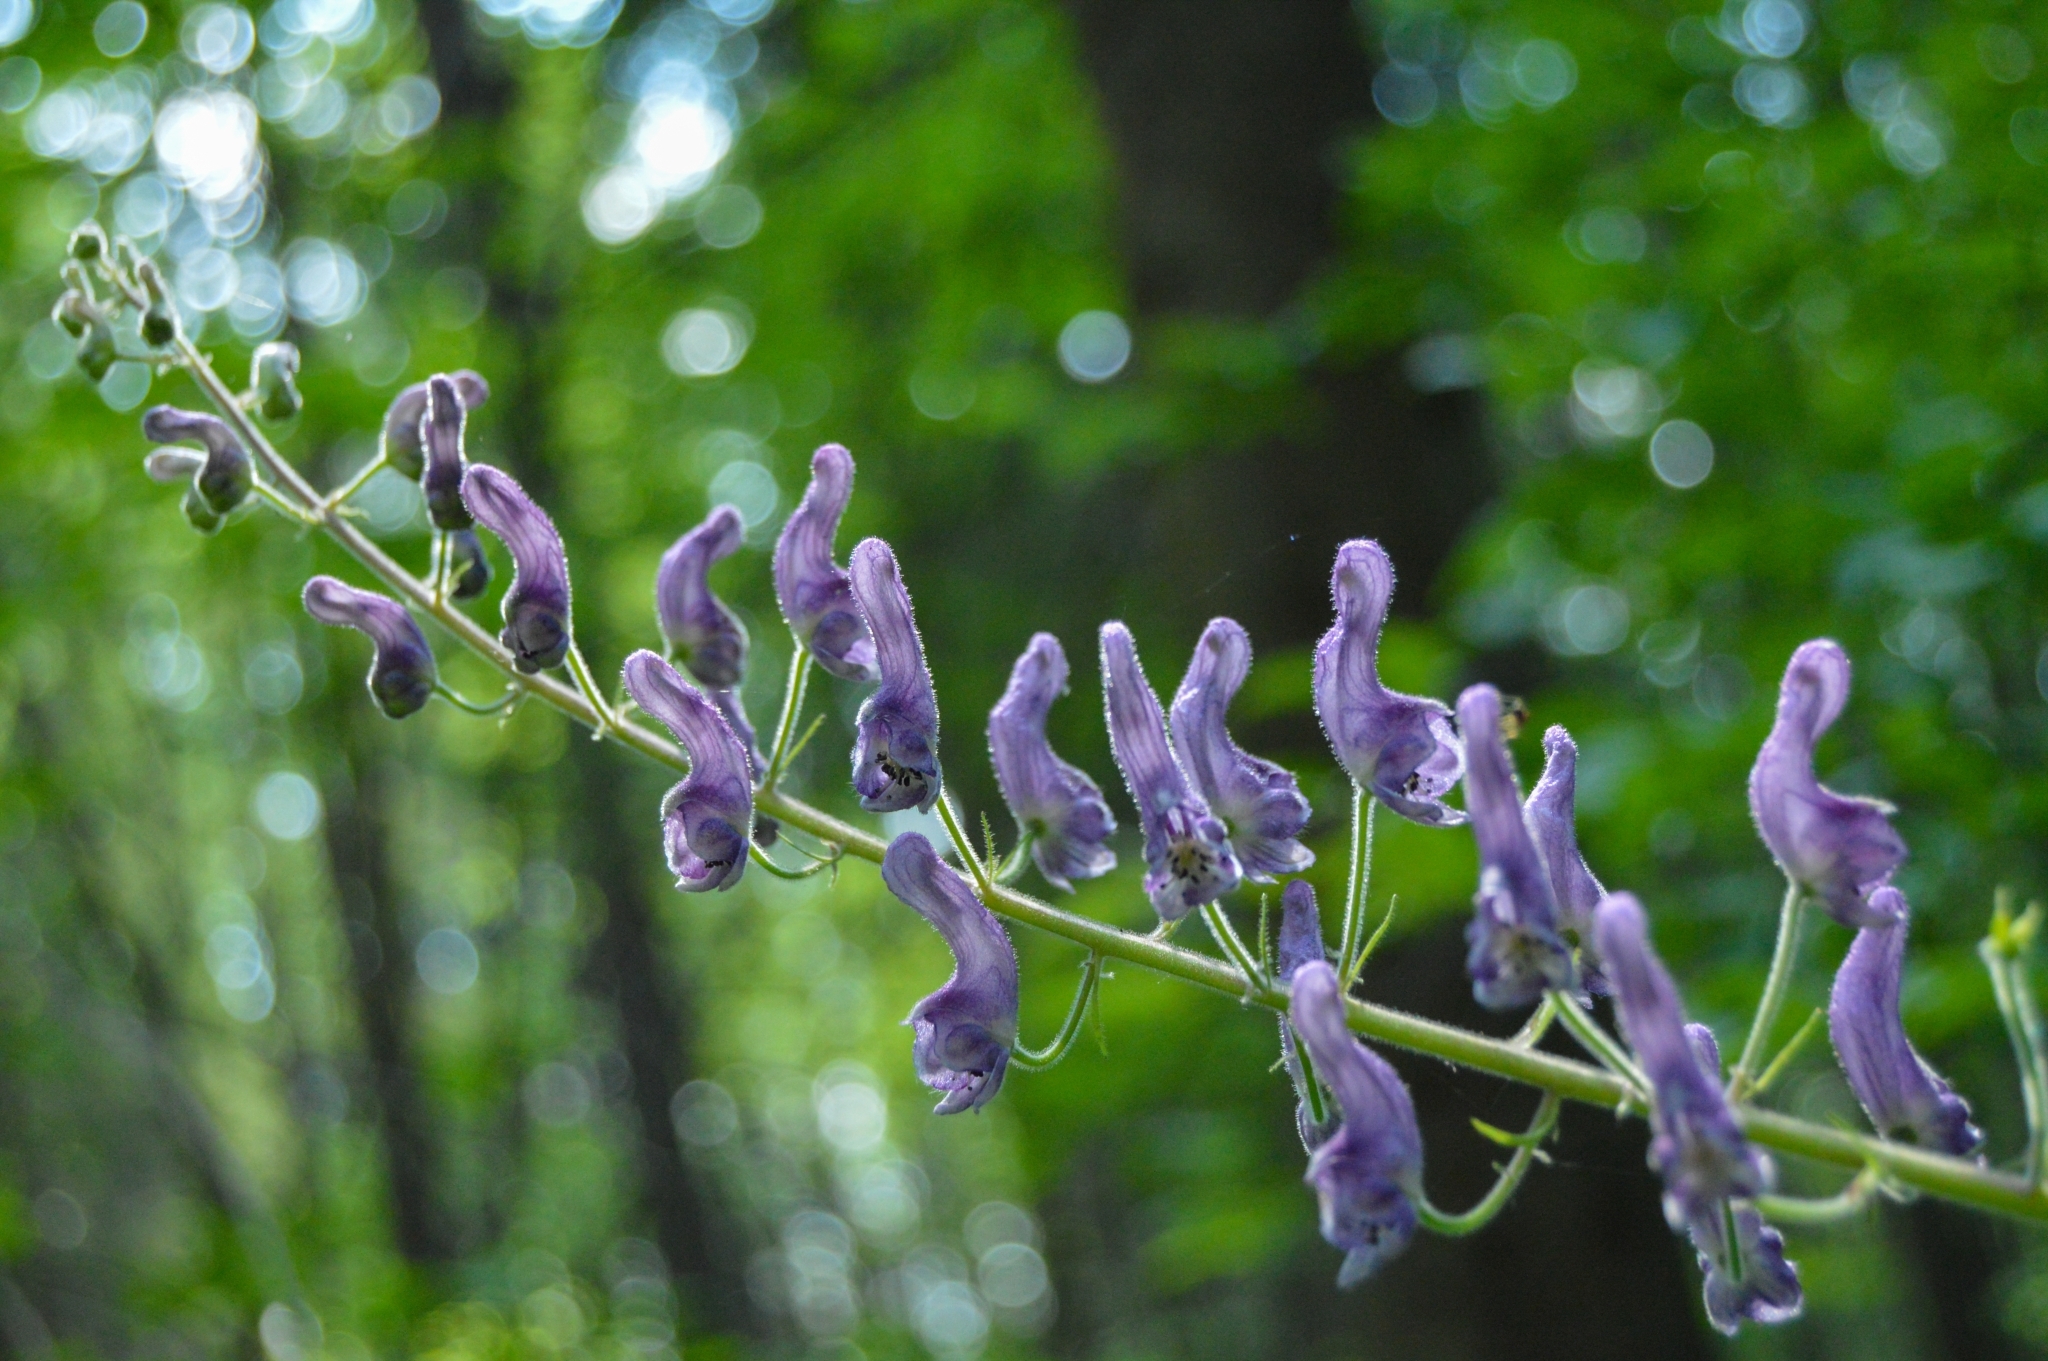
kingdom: Plantae
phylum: Tracheophyta
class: Magnoliopsida
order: Ranunculales
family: Ranunculaceae
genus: Aconitum
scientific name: Aconitum septentrionale
